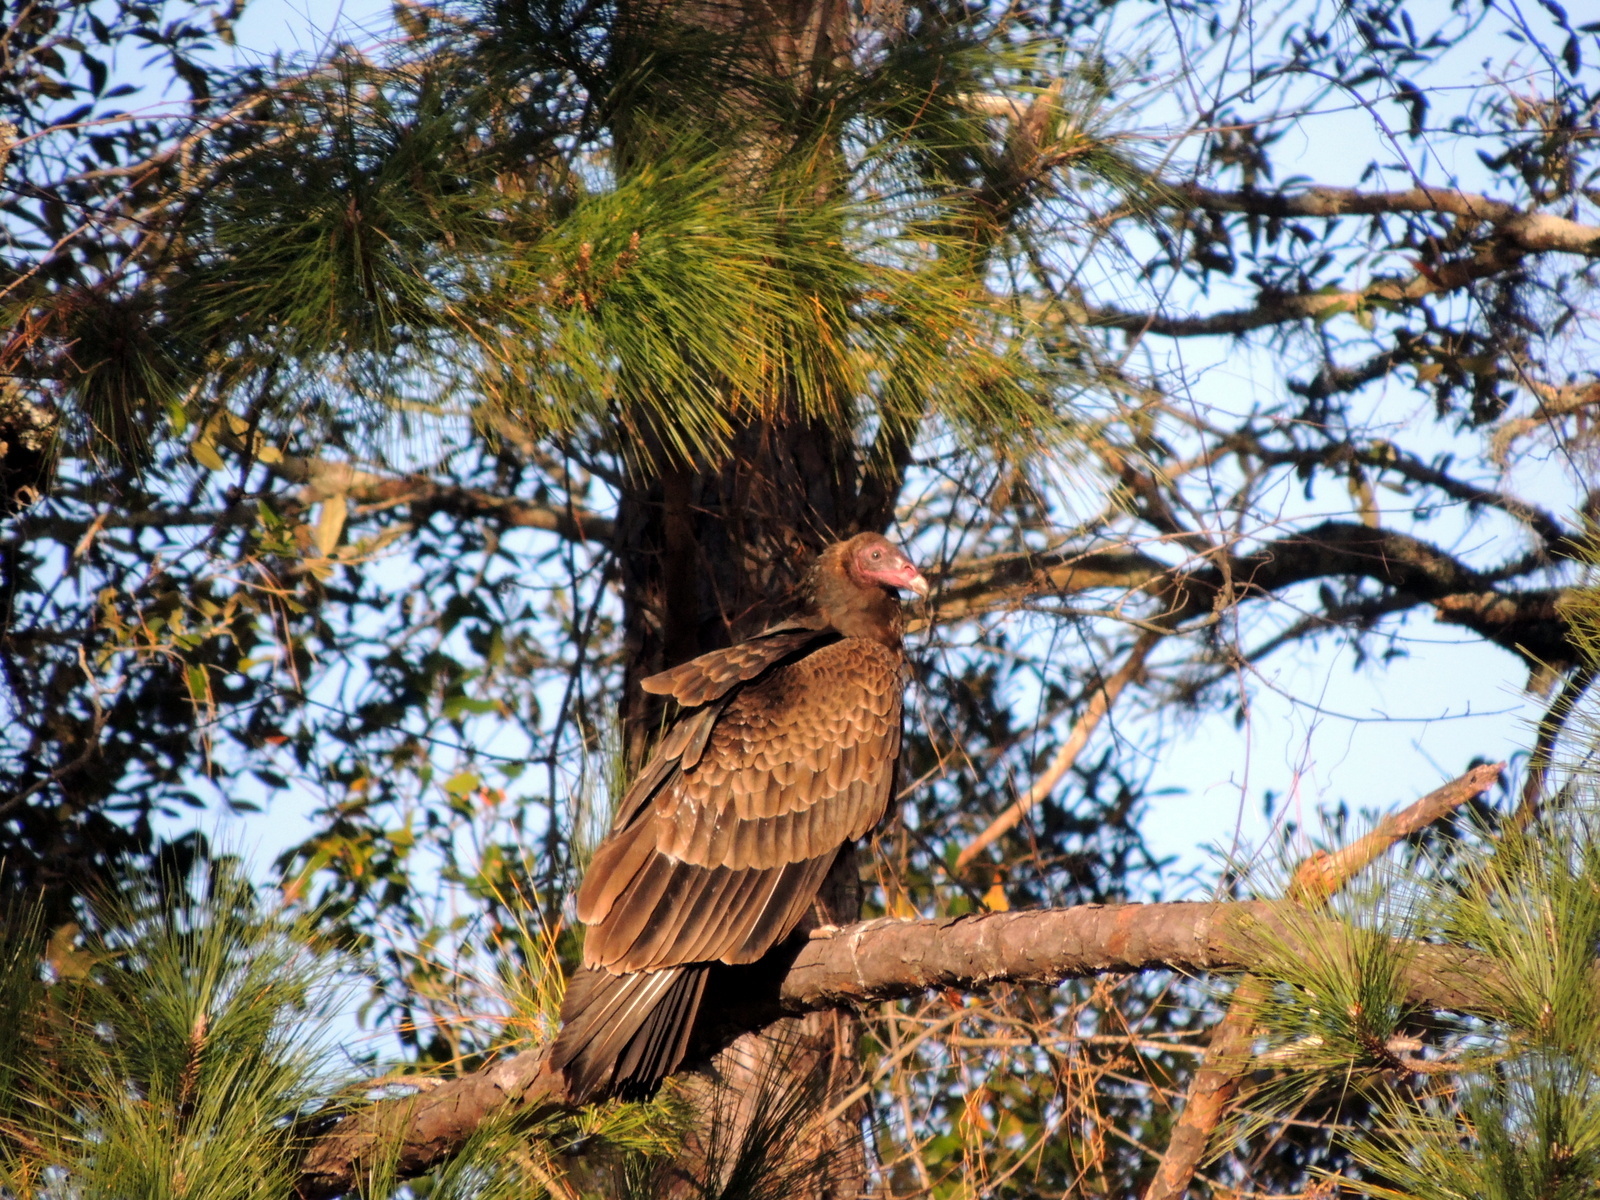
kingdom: Animalia
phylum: Chordata
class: Aves
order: Accipitriformes
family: Cathartidae
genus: Cathartes
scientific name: Cathartes aura
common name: Turkey vulture
